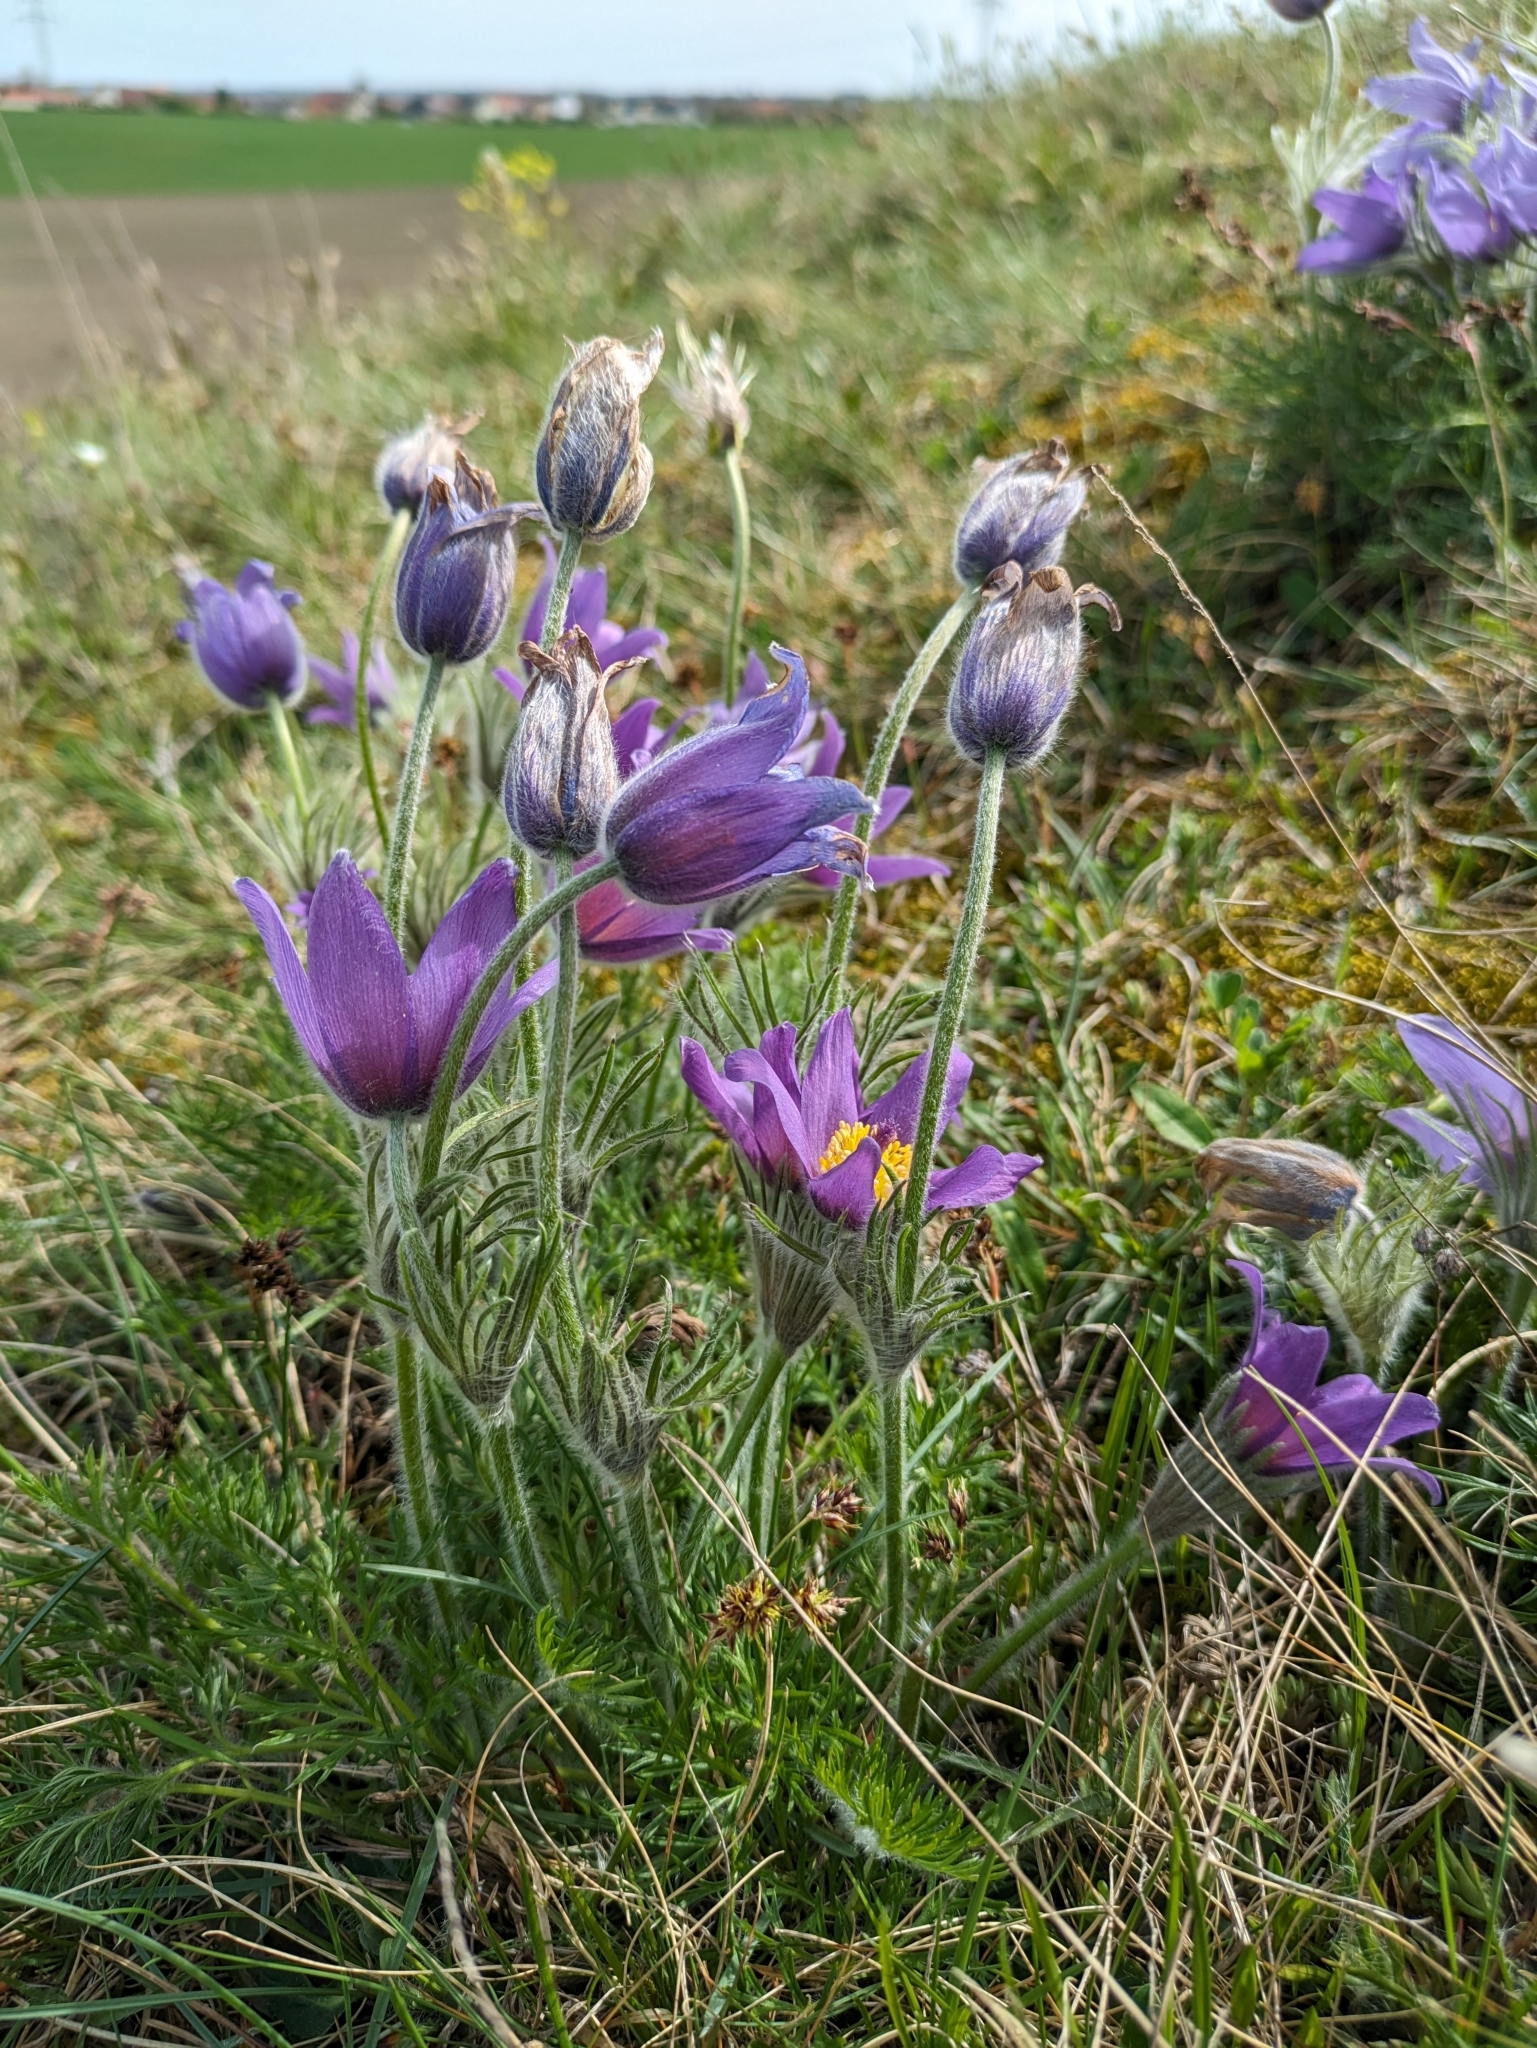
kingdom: Plantae
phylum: Tracheophyta
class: Magnoliopsida
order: Ranunculales
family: Ranunculaceae
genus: Pulsatilla
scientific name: Pulsatilla vulgaris
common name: Pasqueflower
